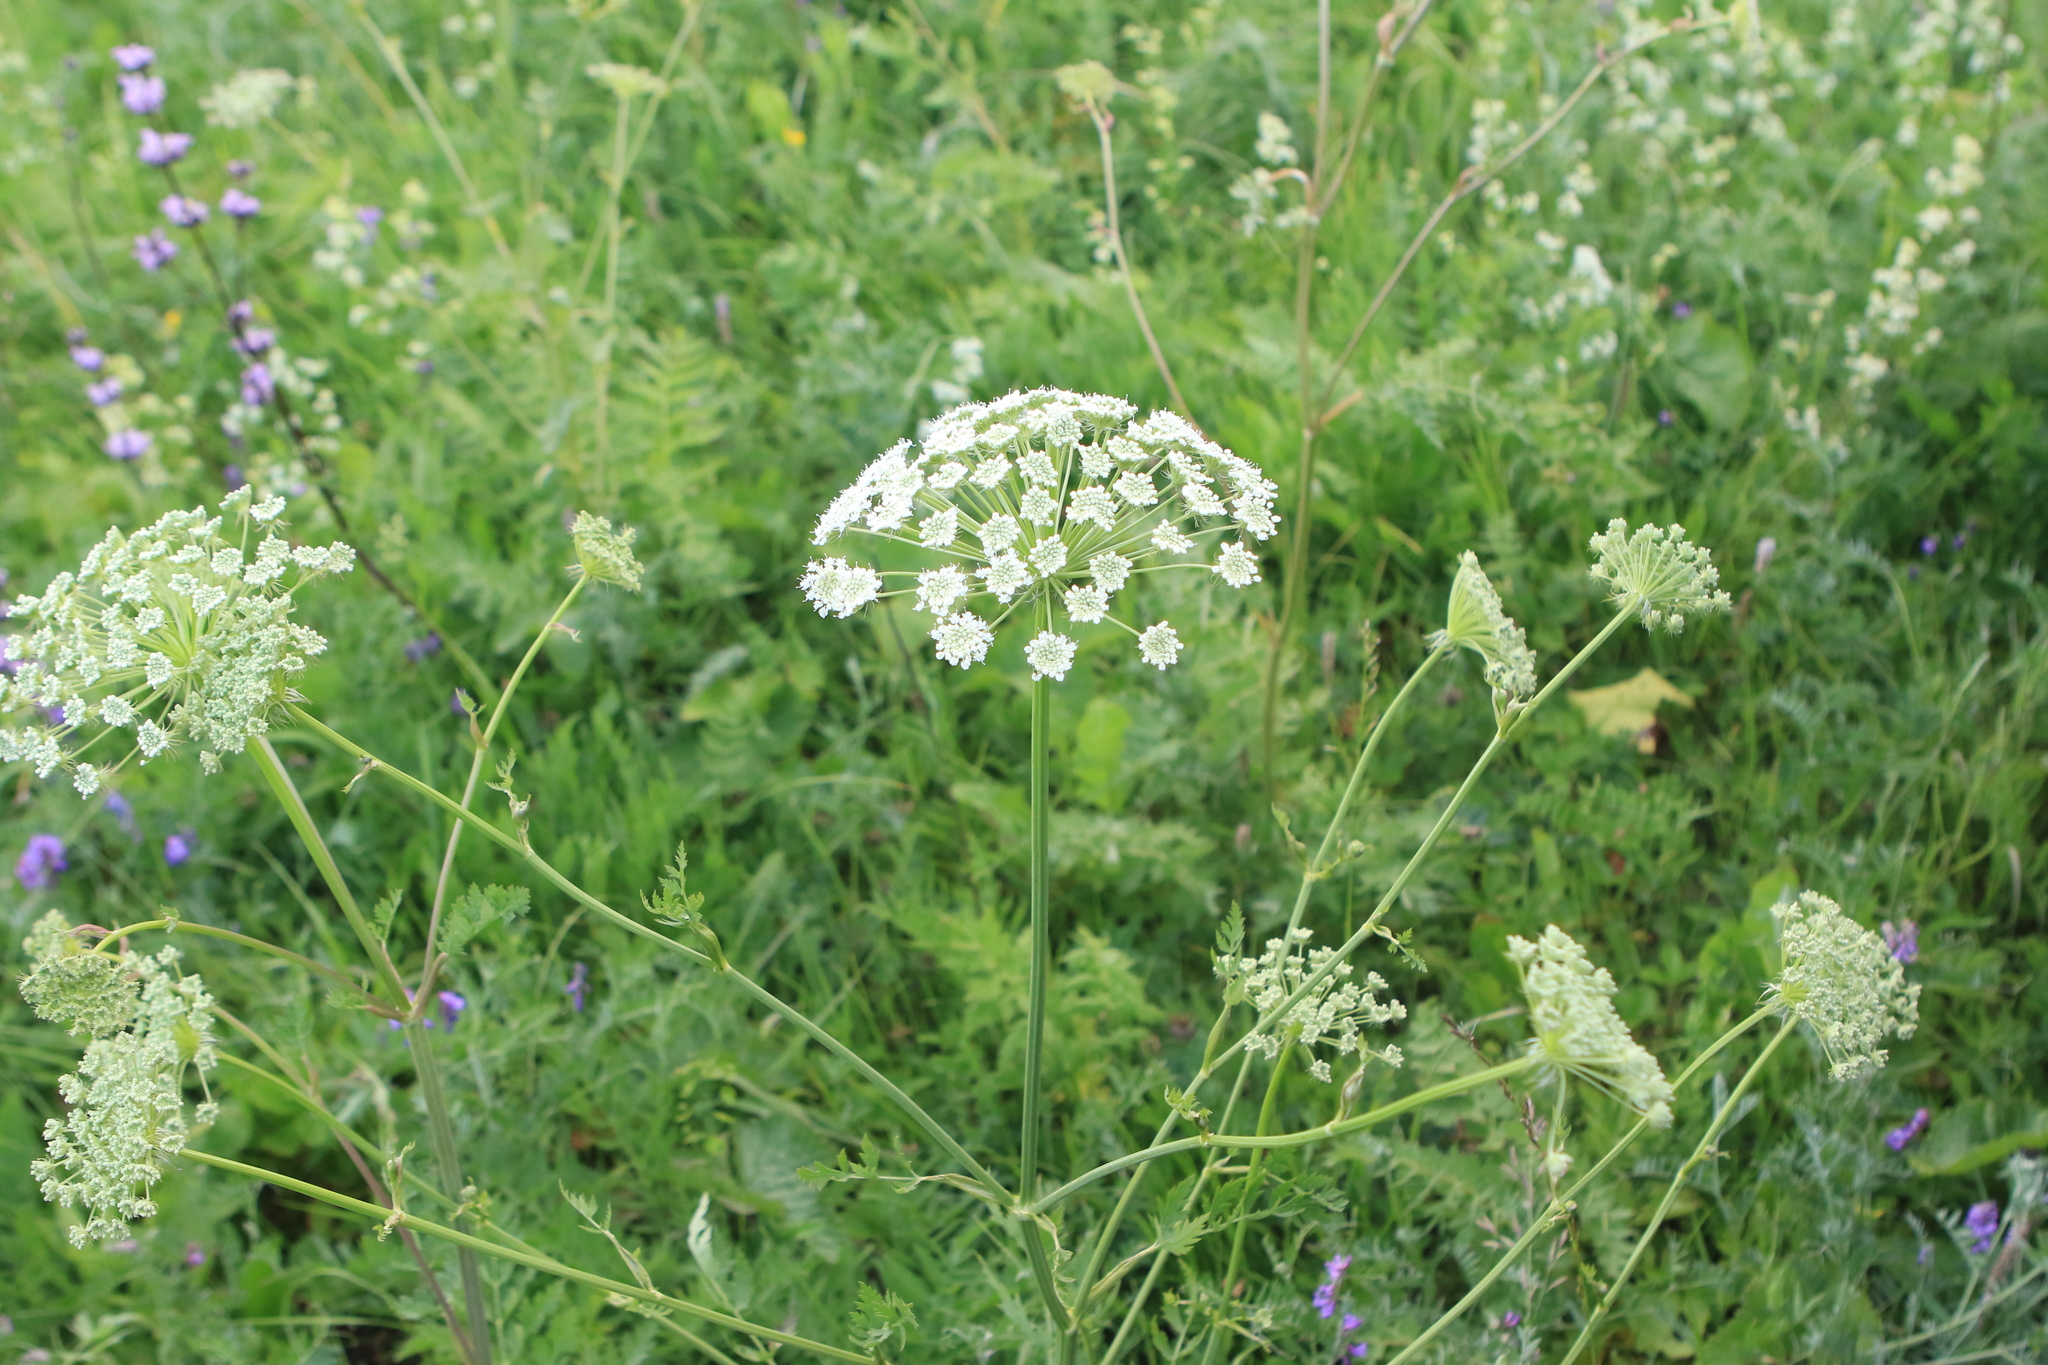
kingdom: Plantae
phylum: Tracheophyta
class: Magnoliopsida
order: Apiales
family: Apiaceae
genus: Seseli
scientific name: Seseli libanotis
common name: Mooncarrot
